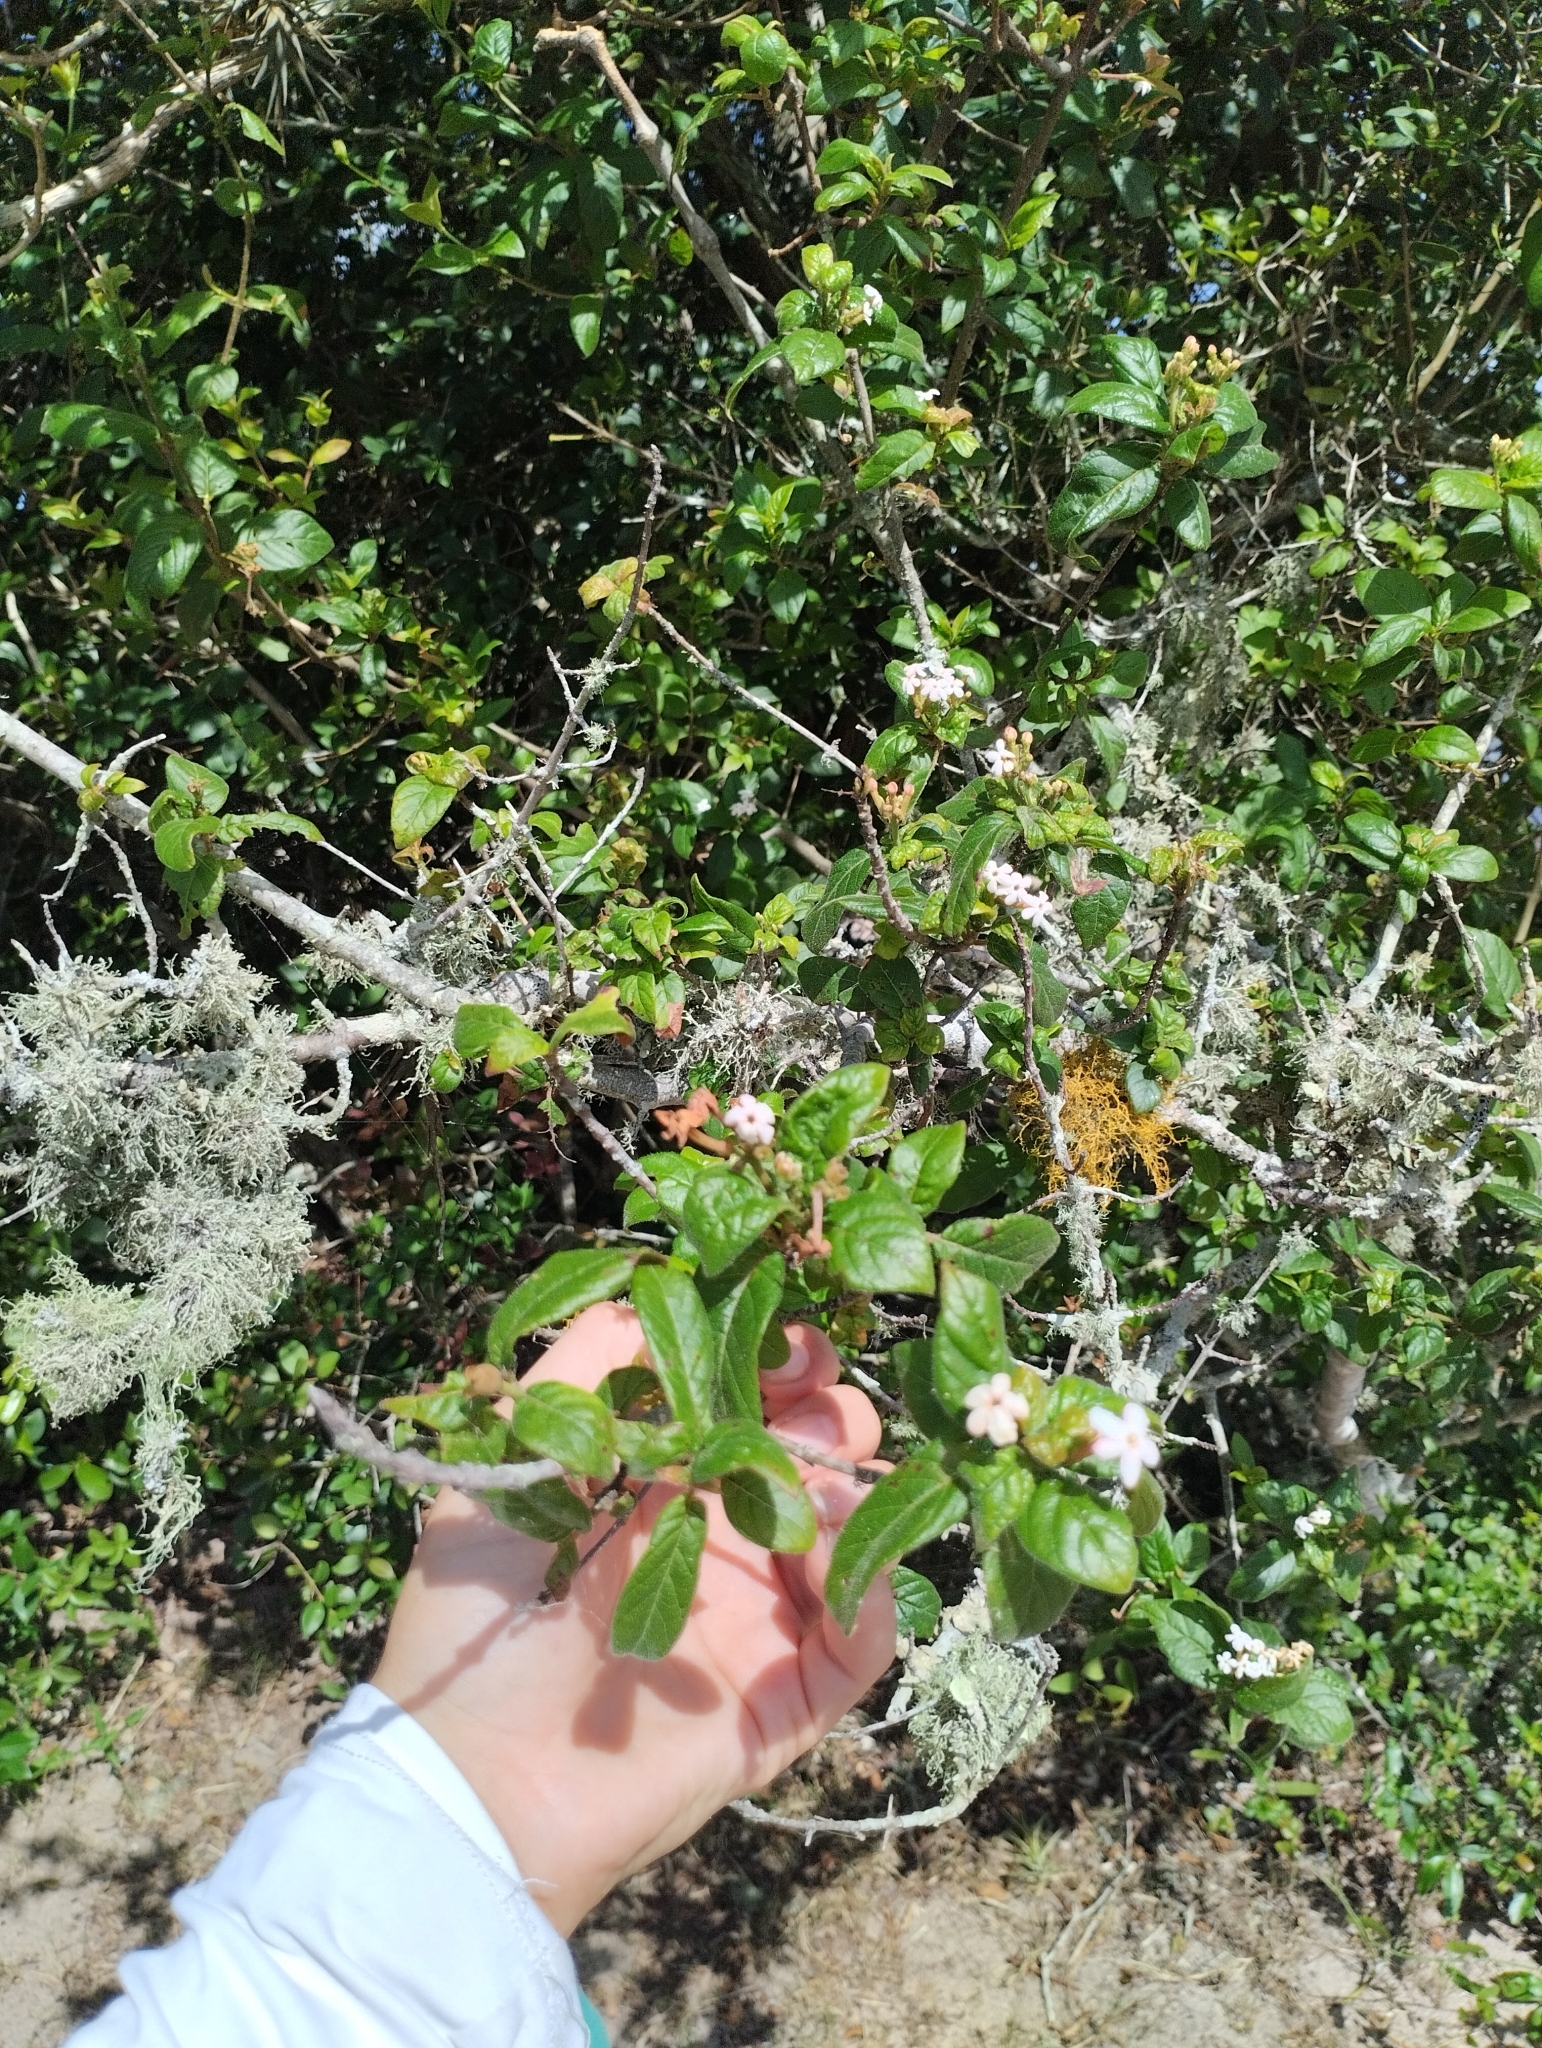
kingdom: Plantae
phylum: Tracheophyta
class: Magnoliopsida
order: Gentianales
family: Rubiaceae
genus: Guettarda
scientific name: Guettarda uruguensis
